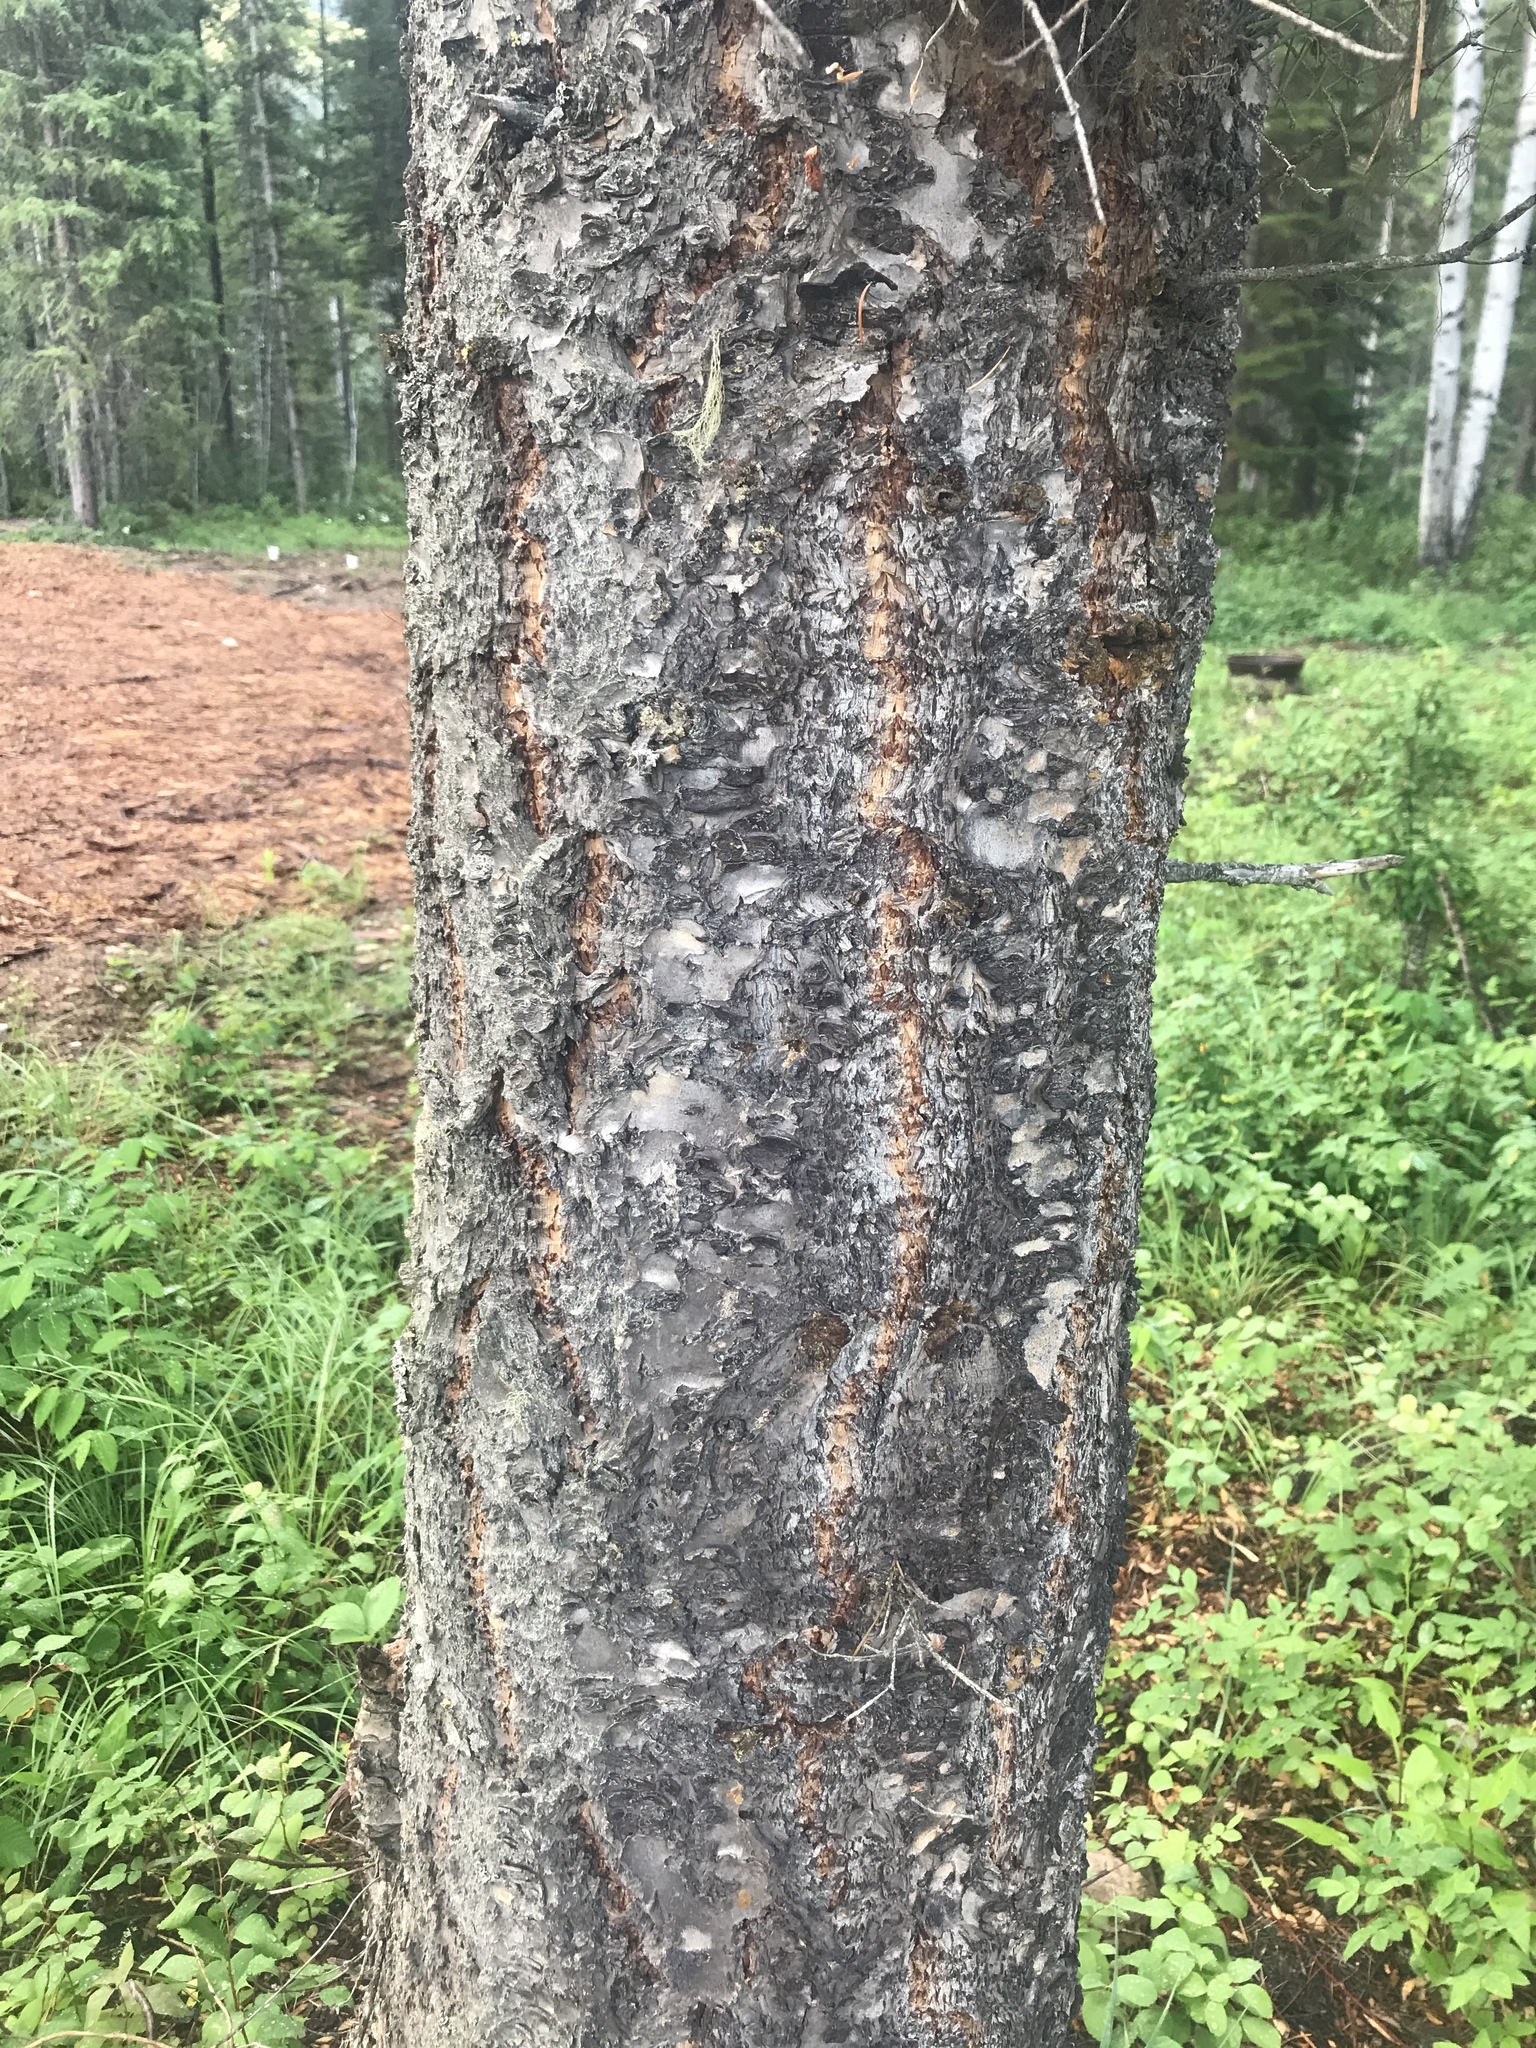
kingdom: Plantae
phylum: Tracheophyta
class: Pinopsida
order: Pinales
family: Pinaceae
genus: Pseudotsuga
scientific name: Pseudotsuga menziesii
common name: Douglas fir
